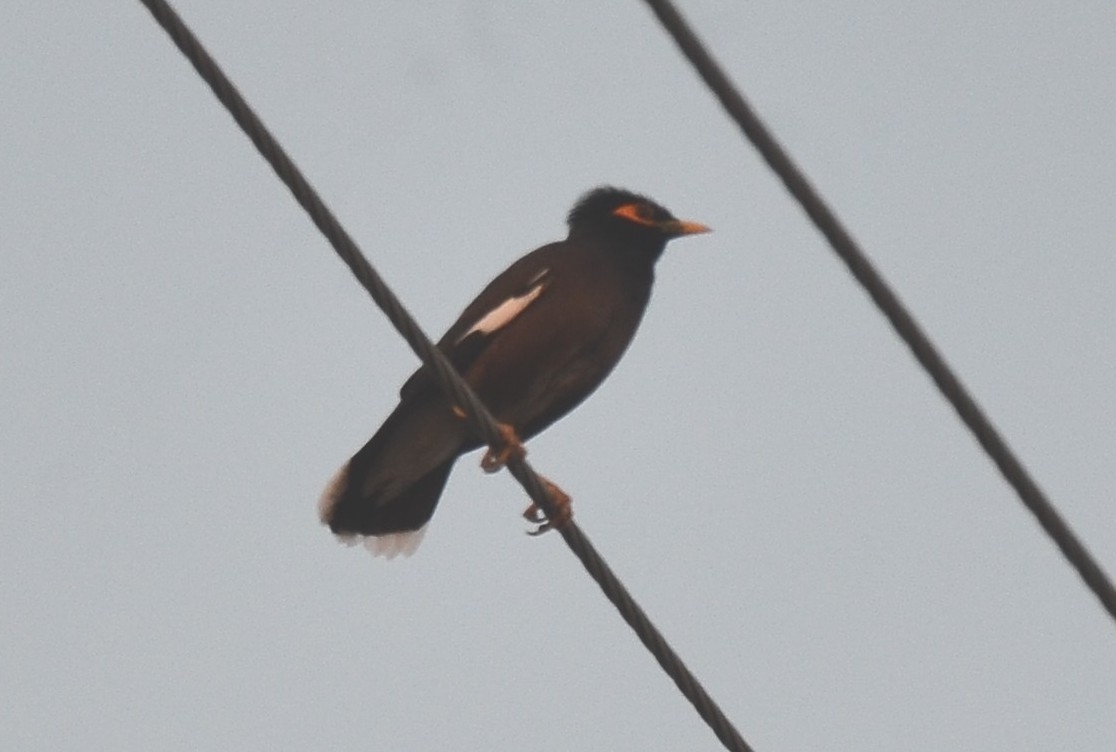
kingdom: Animalia
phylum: Chordata
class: Aves
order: Passeriformes
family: Sturnidae
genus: Acridotheres
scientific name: Acridotheres tristis
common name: Common myna
